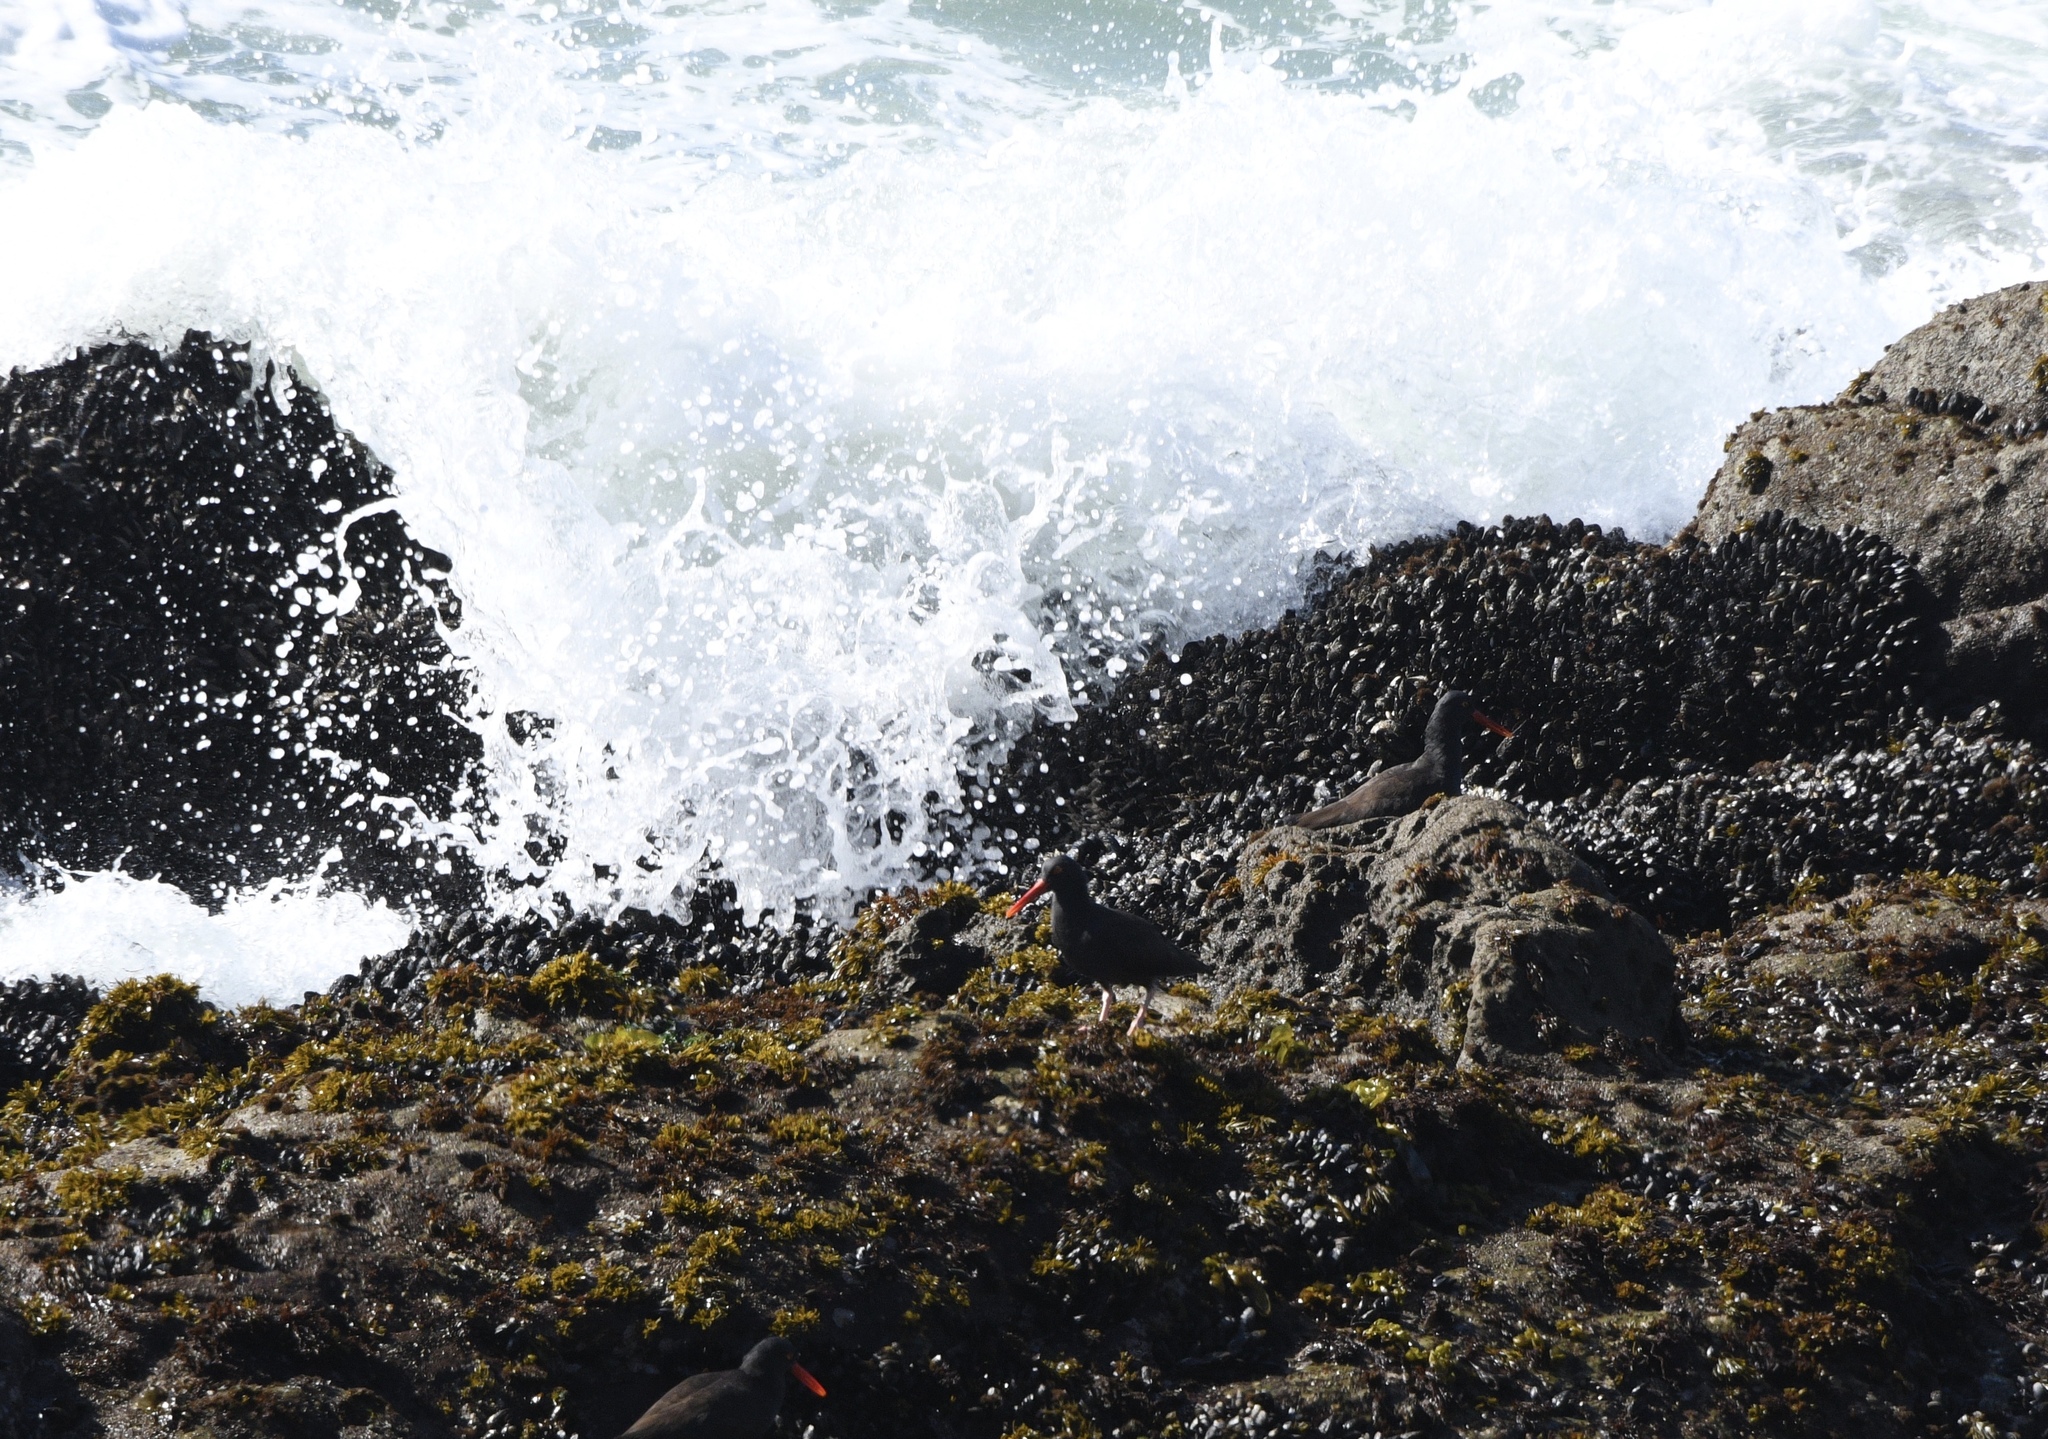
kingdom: Animalia
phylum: Chordata
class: Aves
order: Charadriiformes
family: Haematopodidae
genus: Haematopus
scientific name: Haematopus bachmani
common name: Black oystercatcher
